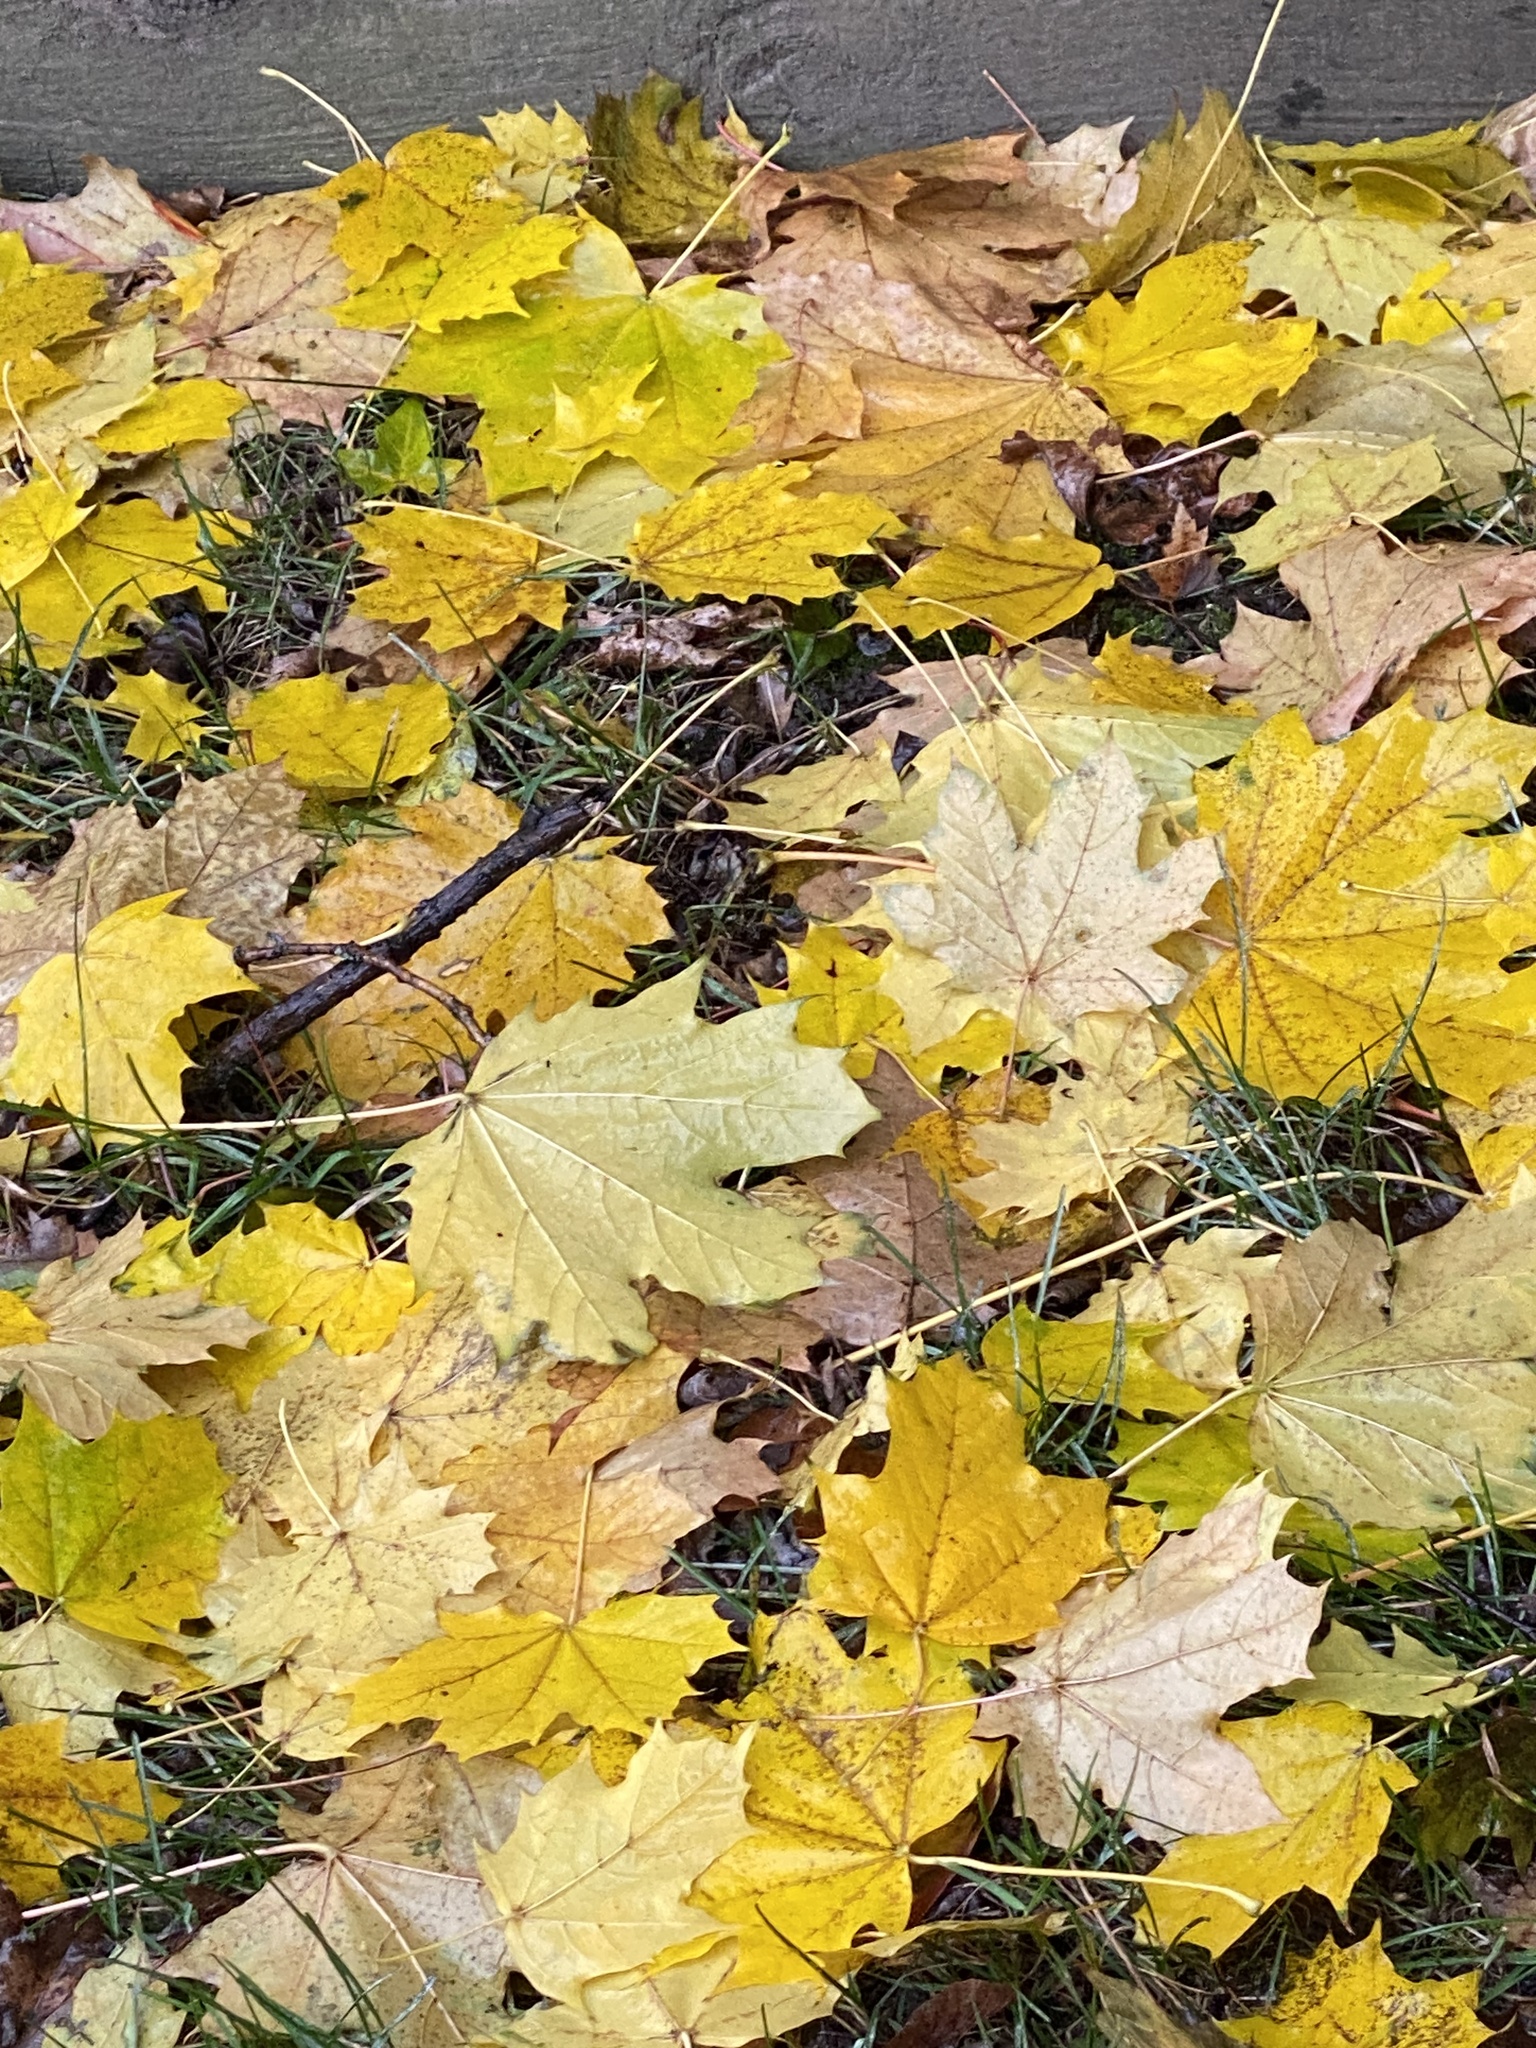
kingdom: Plantae
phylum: Tracheophyta
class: Magnoliopsida
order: Sapindales
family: Sapindaceae
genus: Acer
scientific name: Acer platanoides
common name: Norway maple
